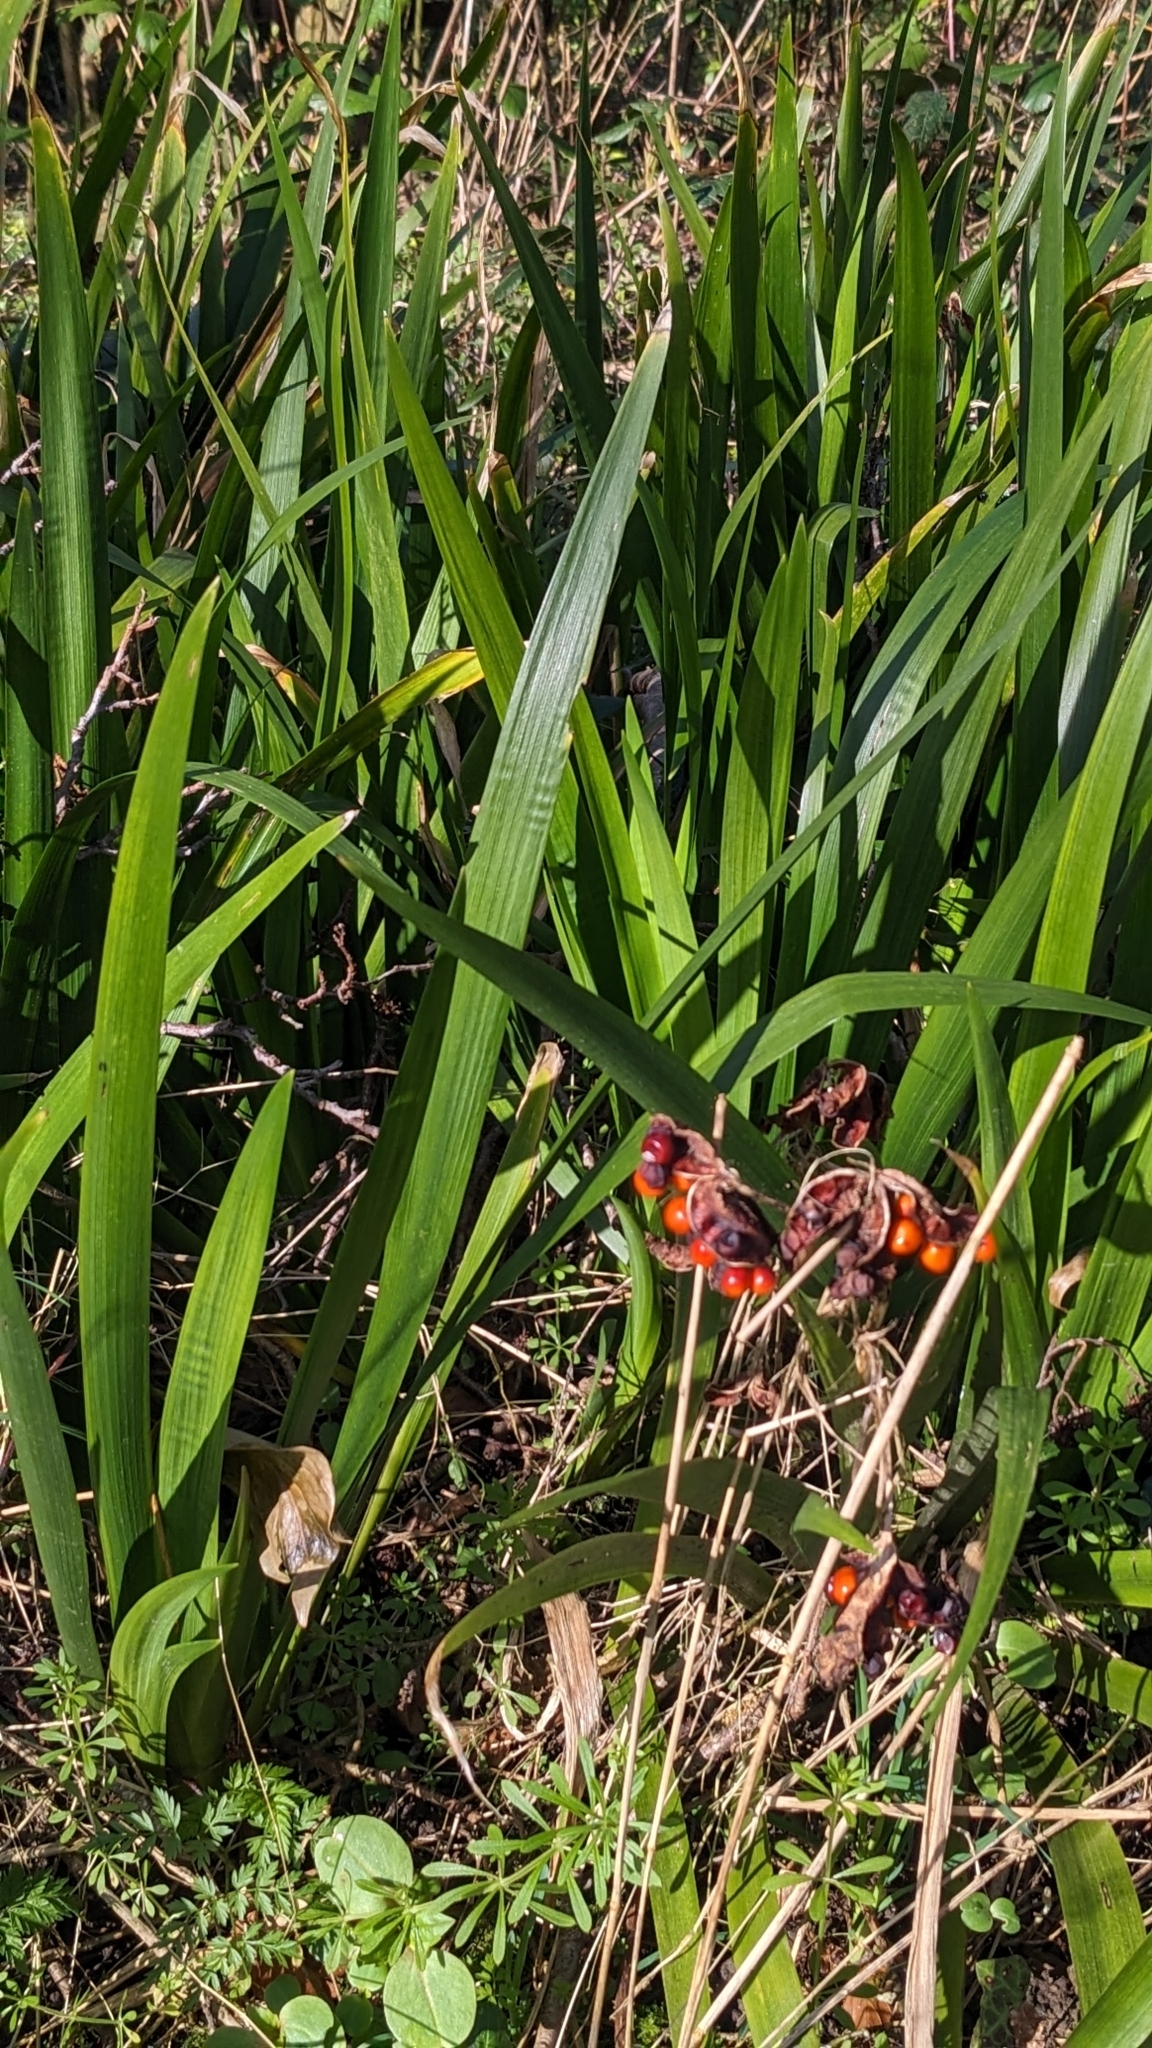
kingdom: Plantae
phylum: Tracheophyta
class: Liliopsida
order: Asparagales
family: Iridaceae
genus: Iris
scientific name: Iris foetidissima
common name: Stinking iris
